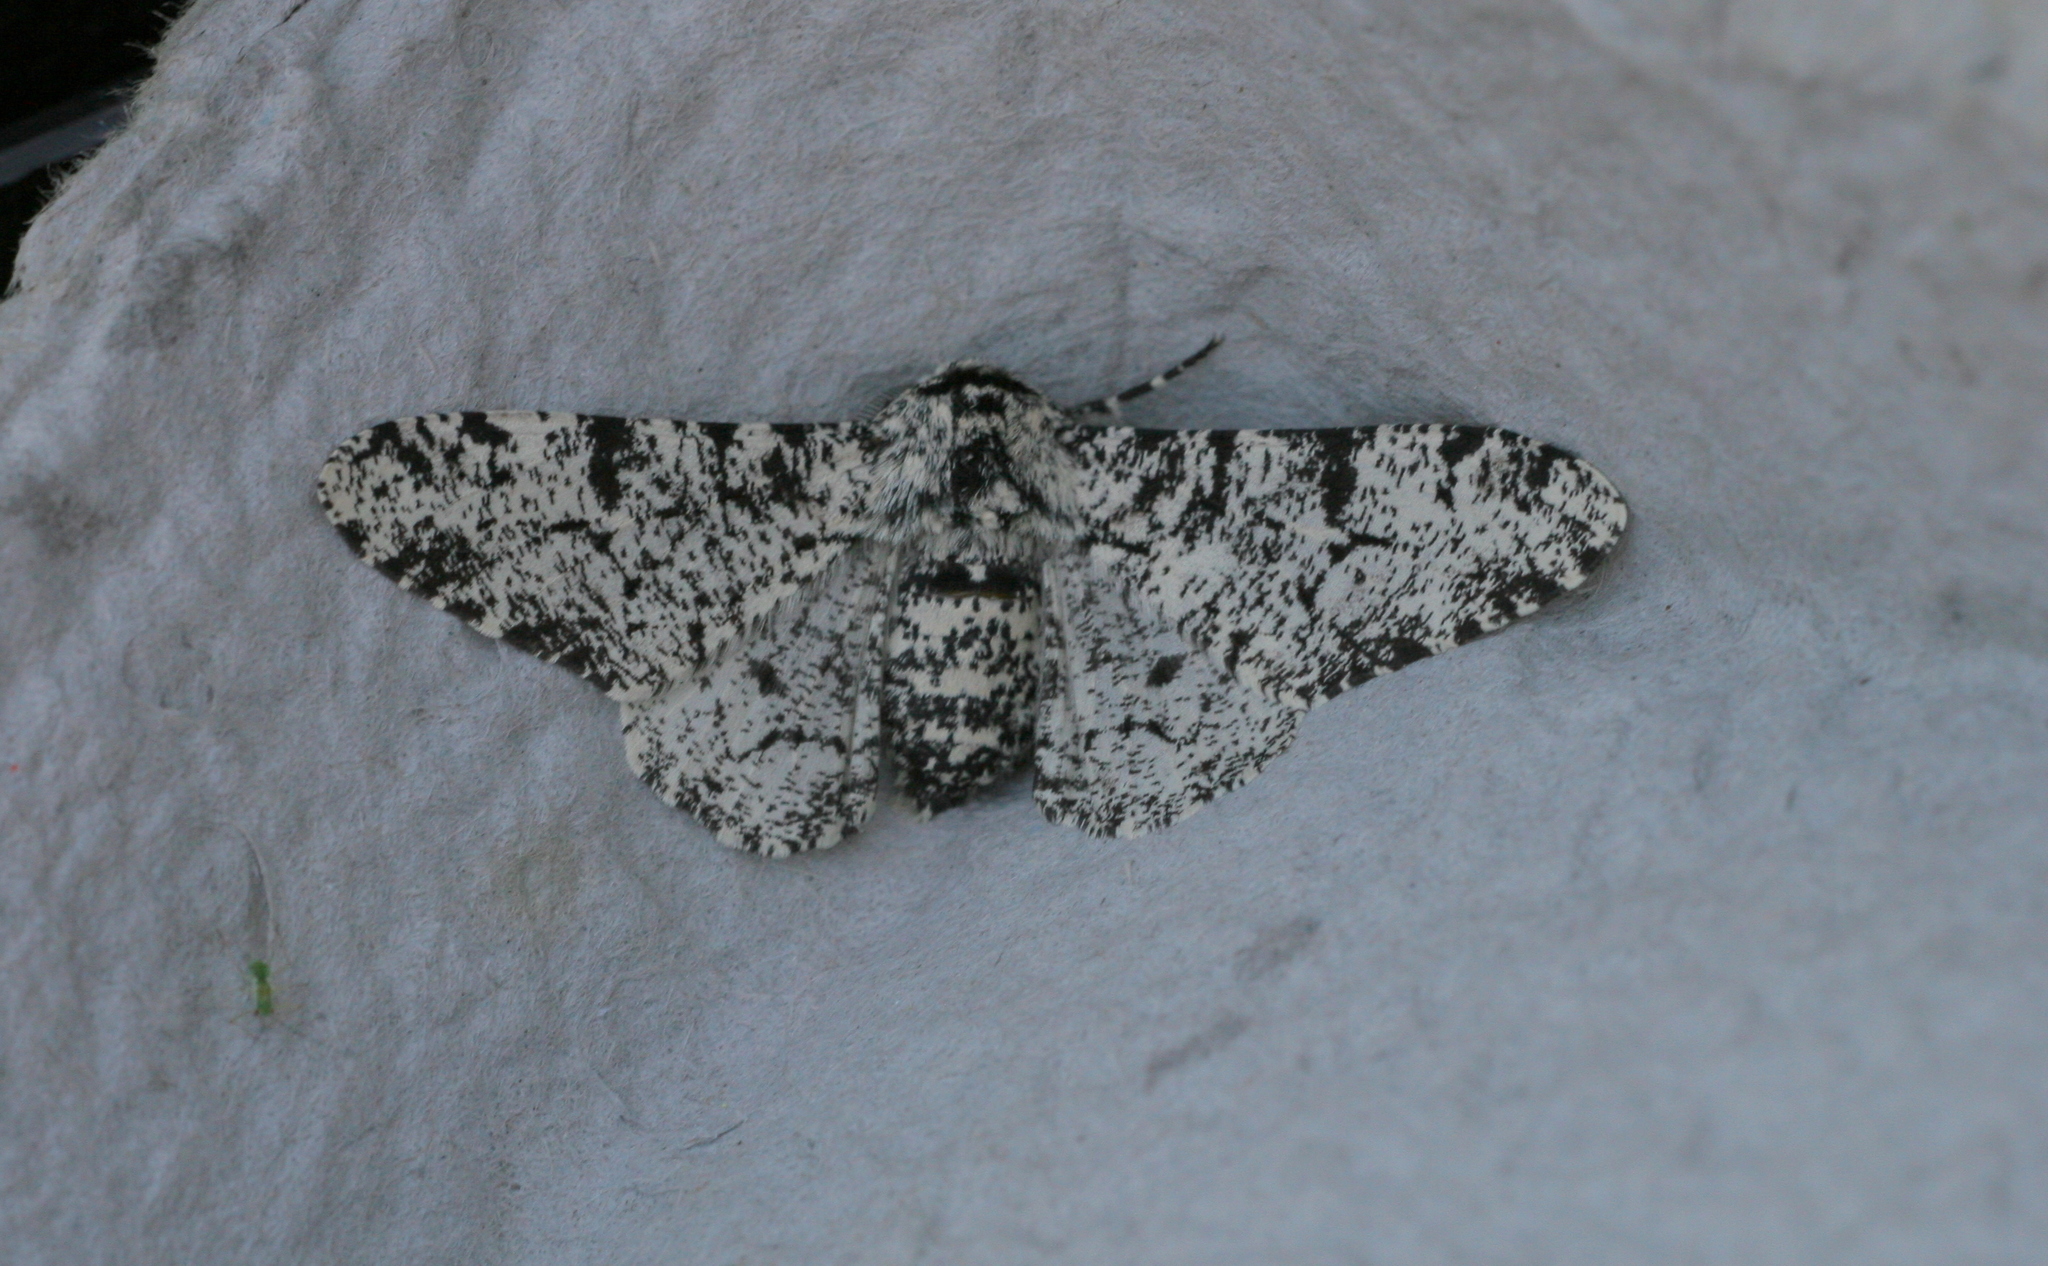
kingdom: Animalia
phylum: Arthropoda
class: Insecta
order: Lepidoptera
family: Geometridae
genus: Biston
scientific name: Biston betularia
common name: Peppered moth
